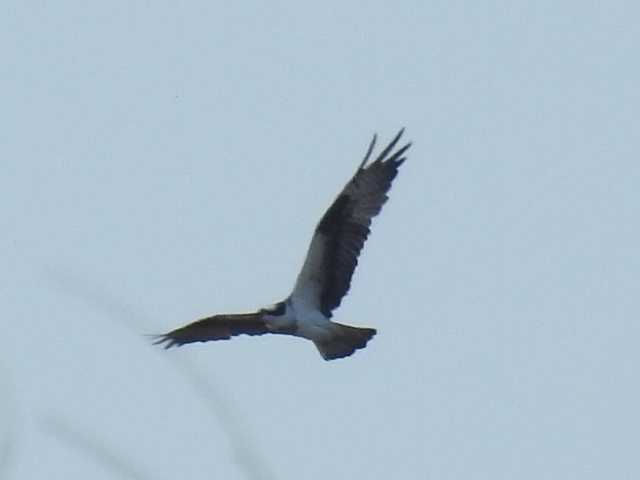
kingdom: Animalia
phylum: Chordata
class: Aves
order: Accipitriformes
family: Pandionidae
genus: Pandion
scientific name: Pandion haliaetus
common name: Osprey
